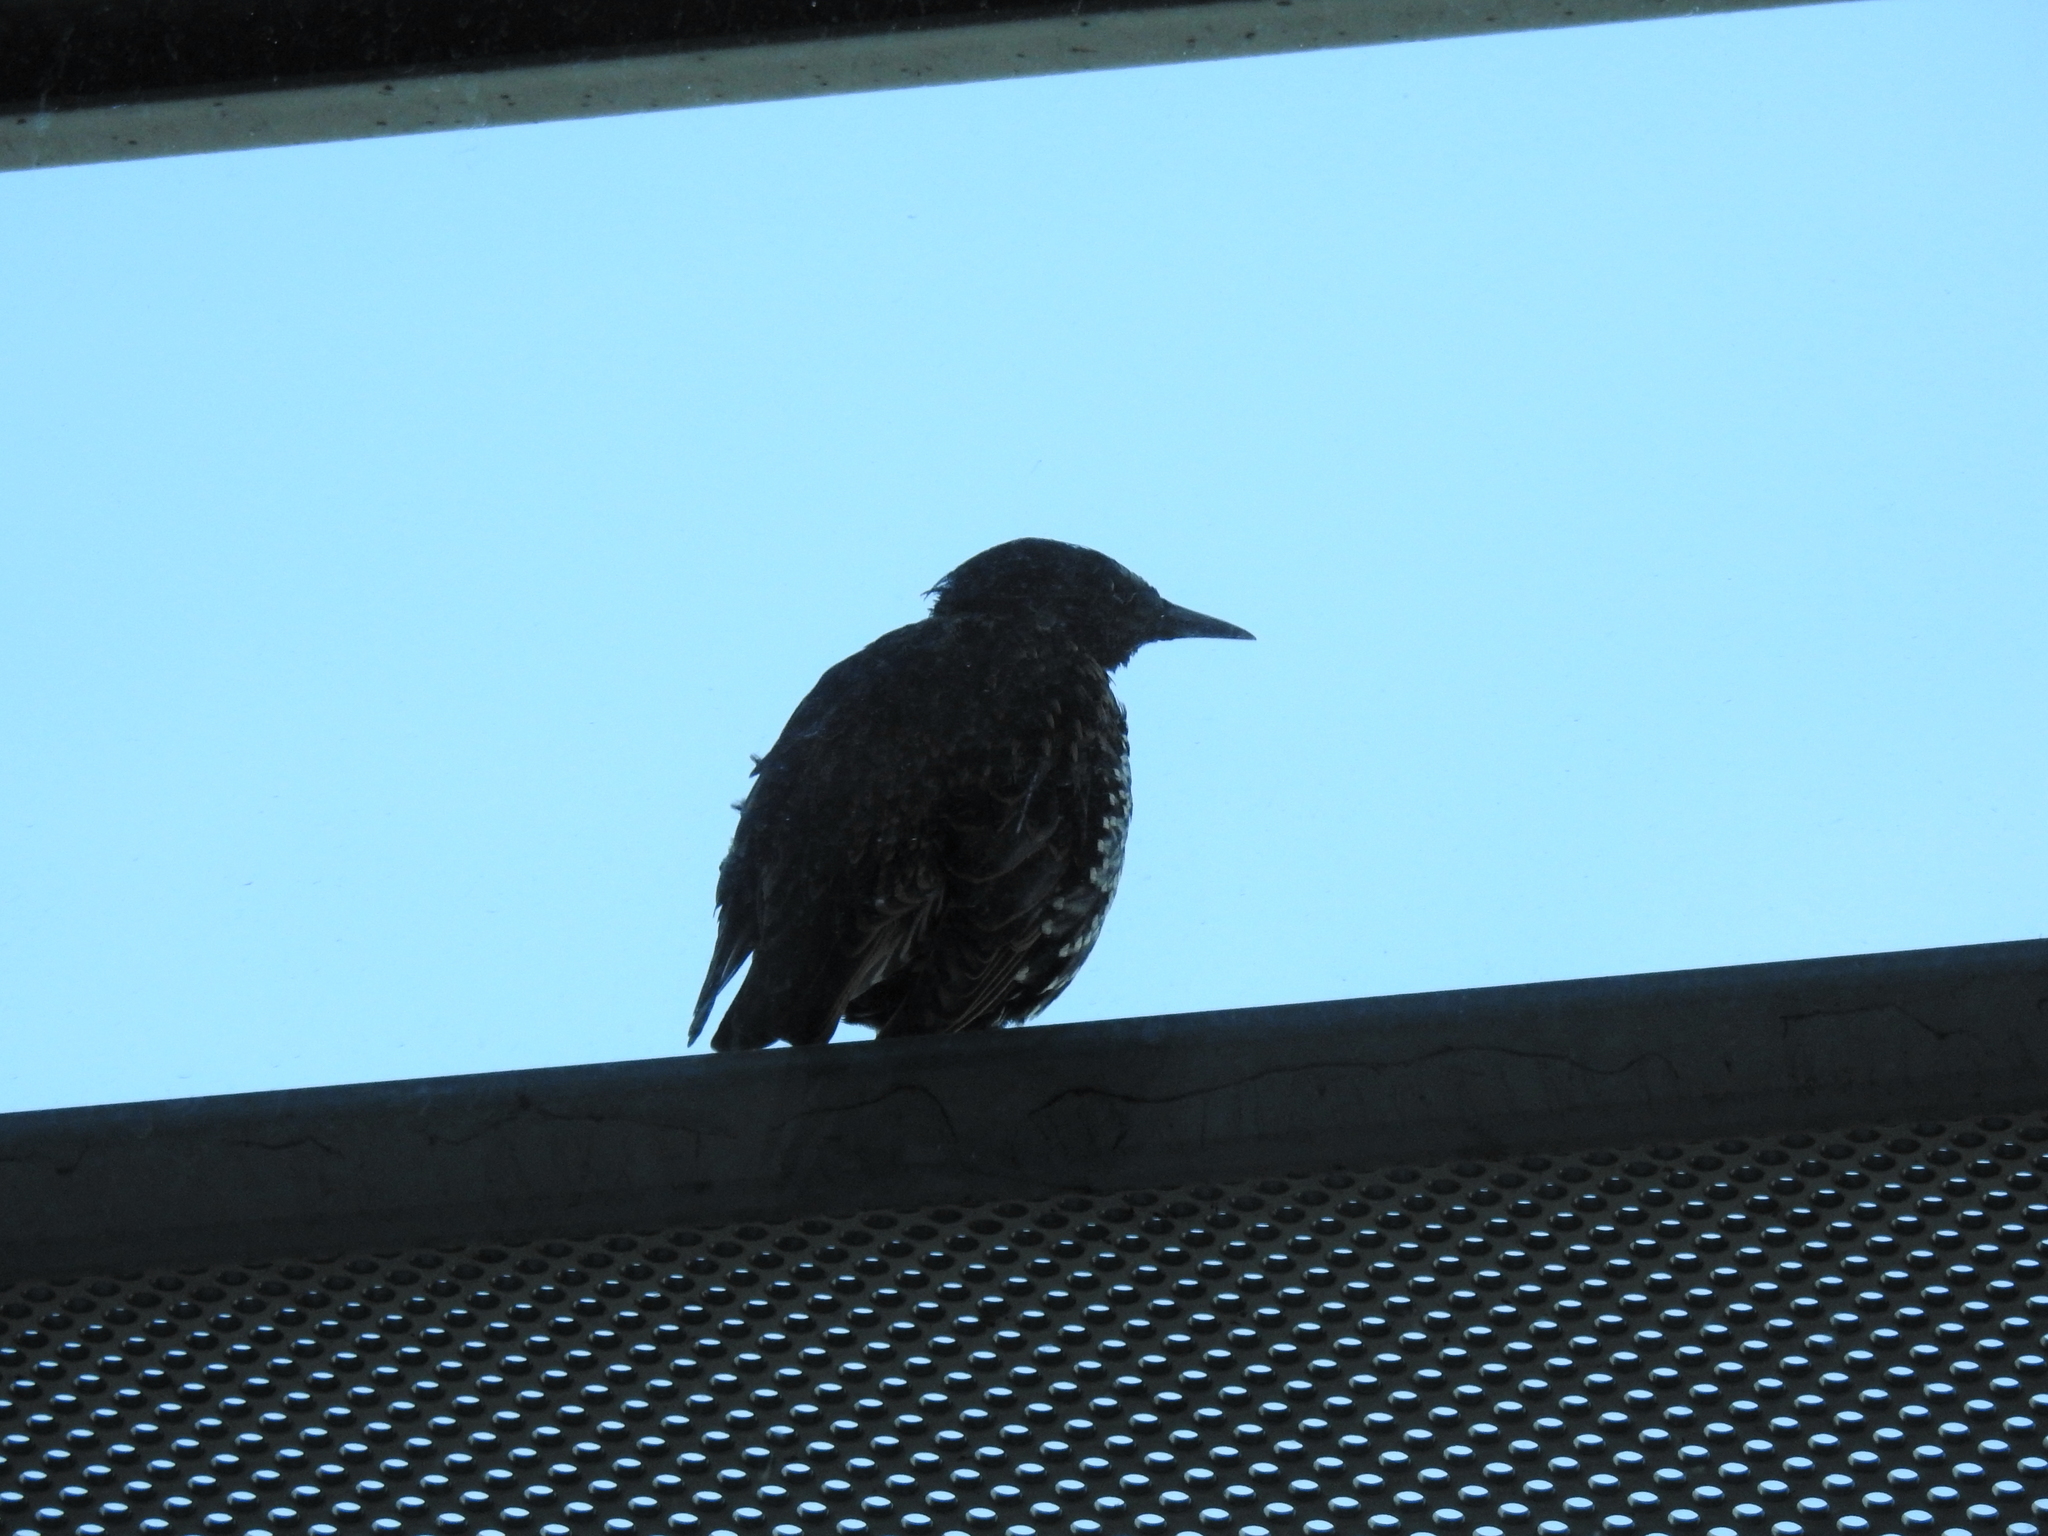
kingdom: Animalia
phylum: Chordata
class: Aves
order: Passeriformes
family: Sturnidae
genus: Sturnus
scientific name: Sturnus vulgaris
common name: Common starling
